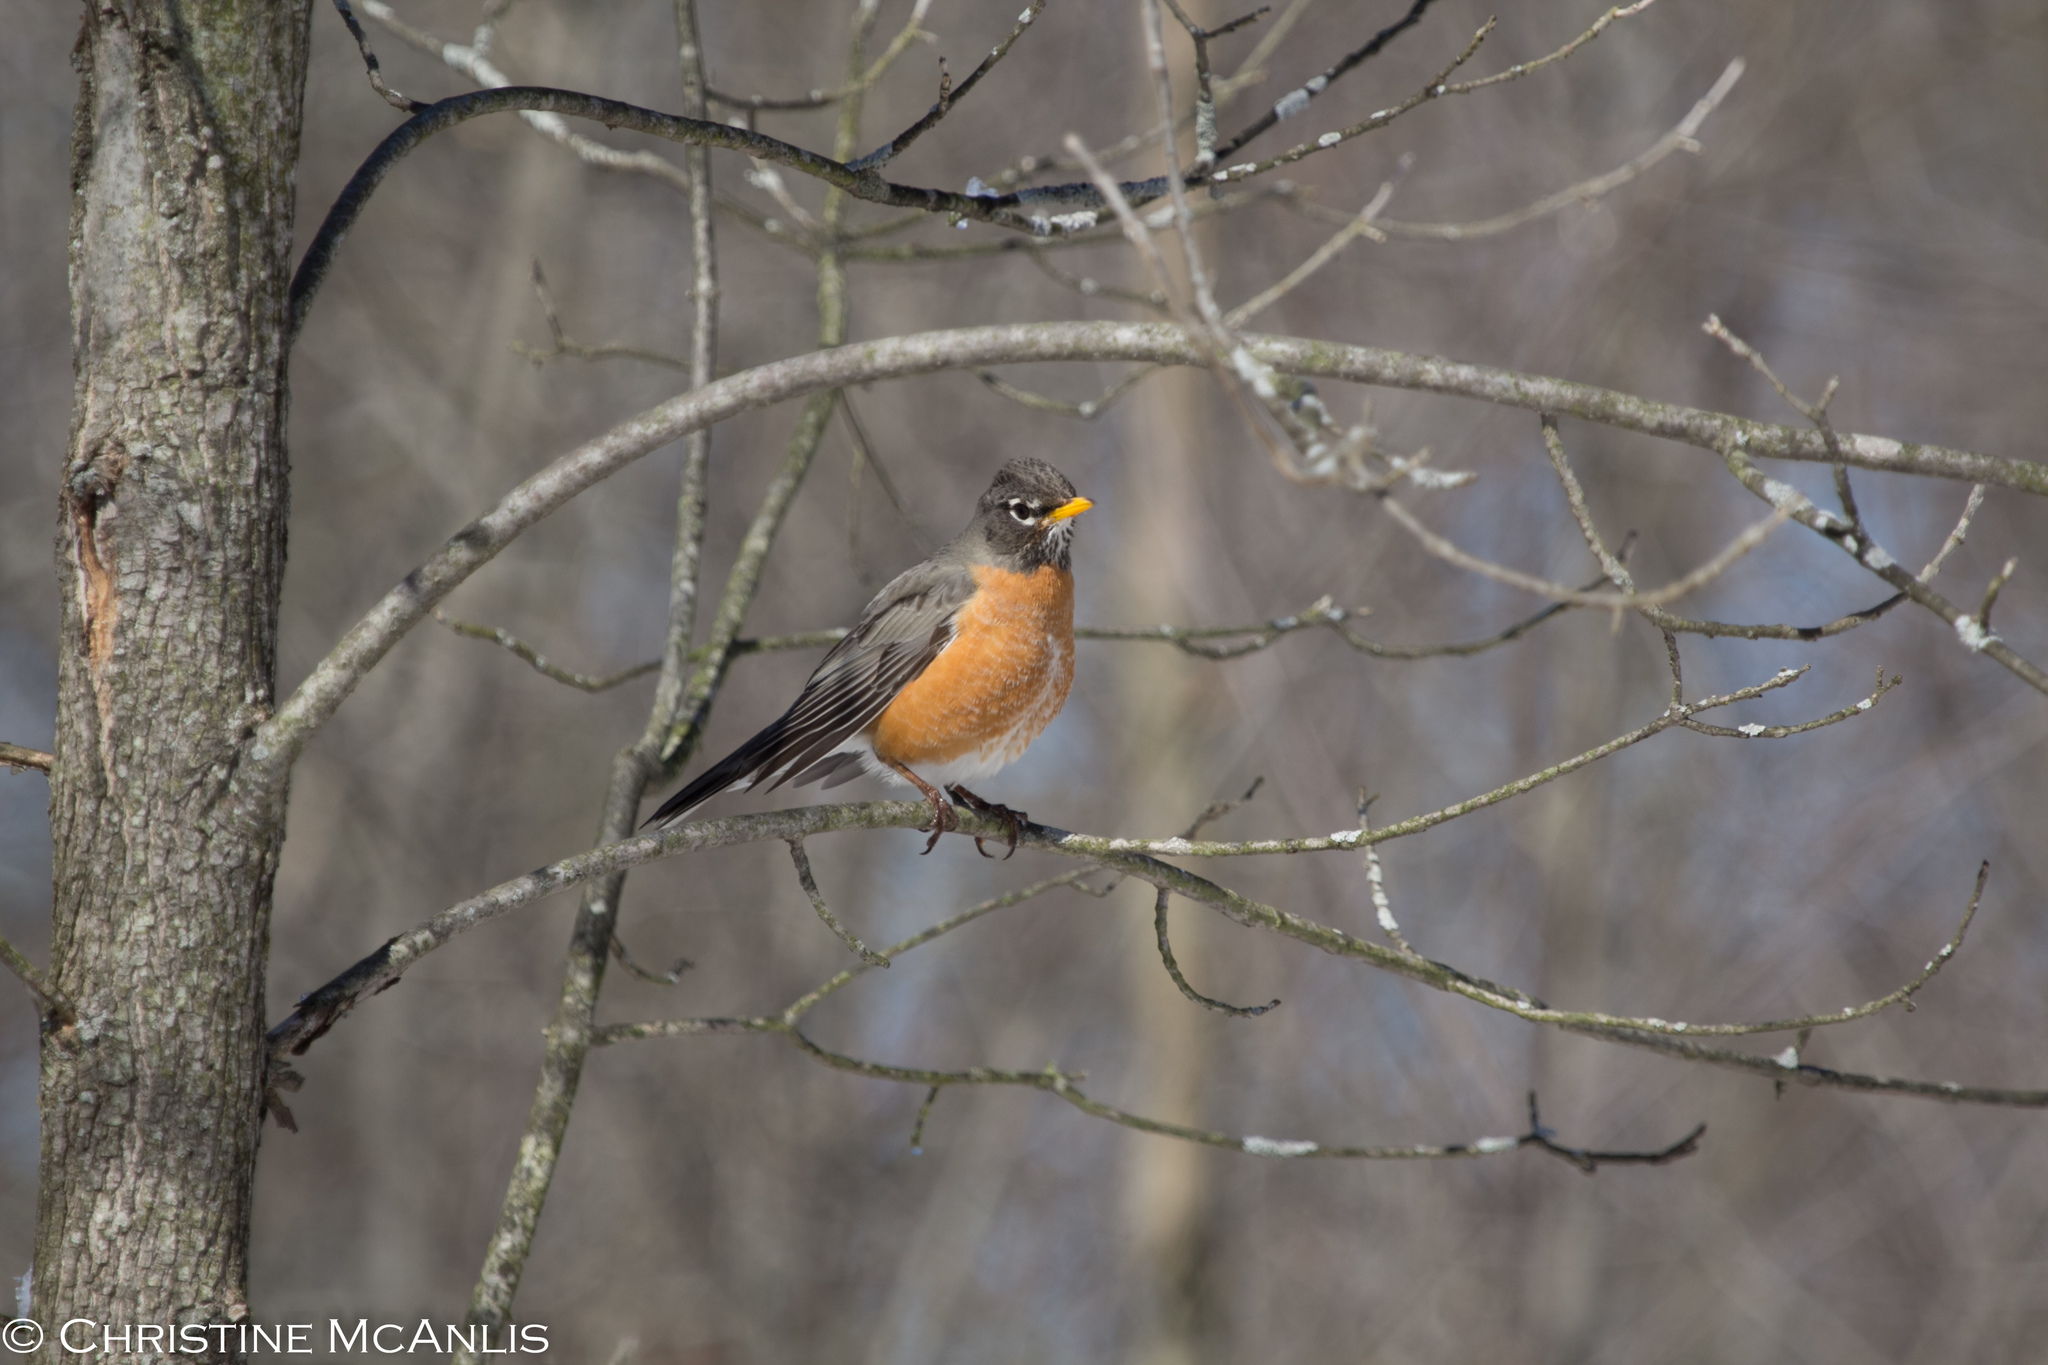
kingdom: Animalia
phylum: Chordata
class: Aves
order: Passeriformes
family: Turdidae
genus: Turdus
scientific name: Turdus migratorius
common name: American robin
